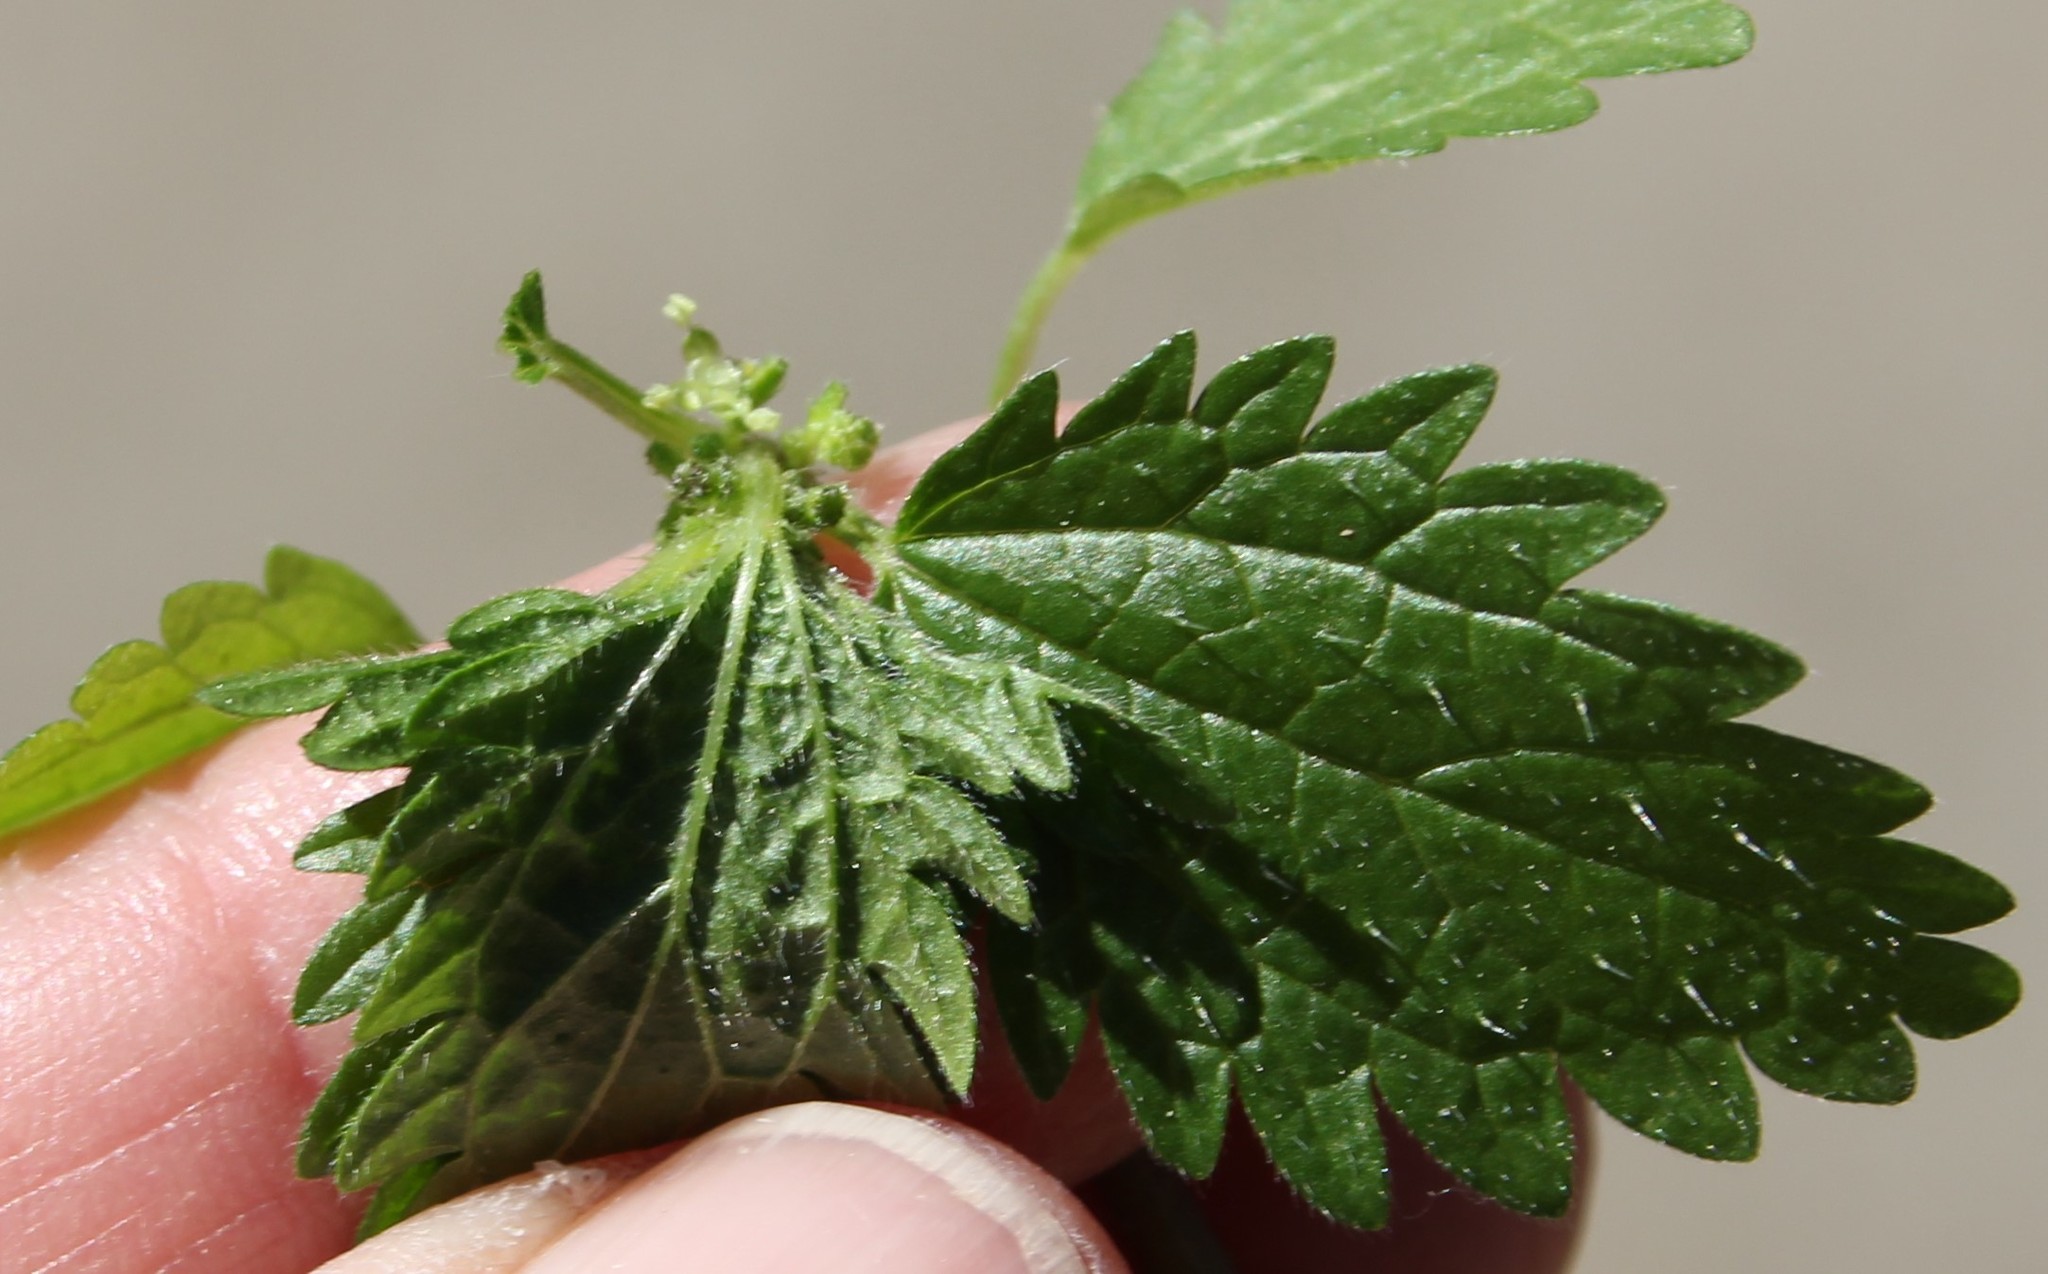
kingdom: Plantae
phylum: Tracheophyta
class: Magnoliopsida
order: Rosales
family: Urticaceae
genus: Urtica
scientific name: Urtica urens
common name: Dwarf nettle
